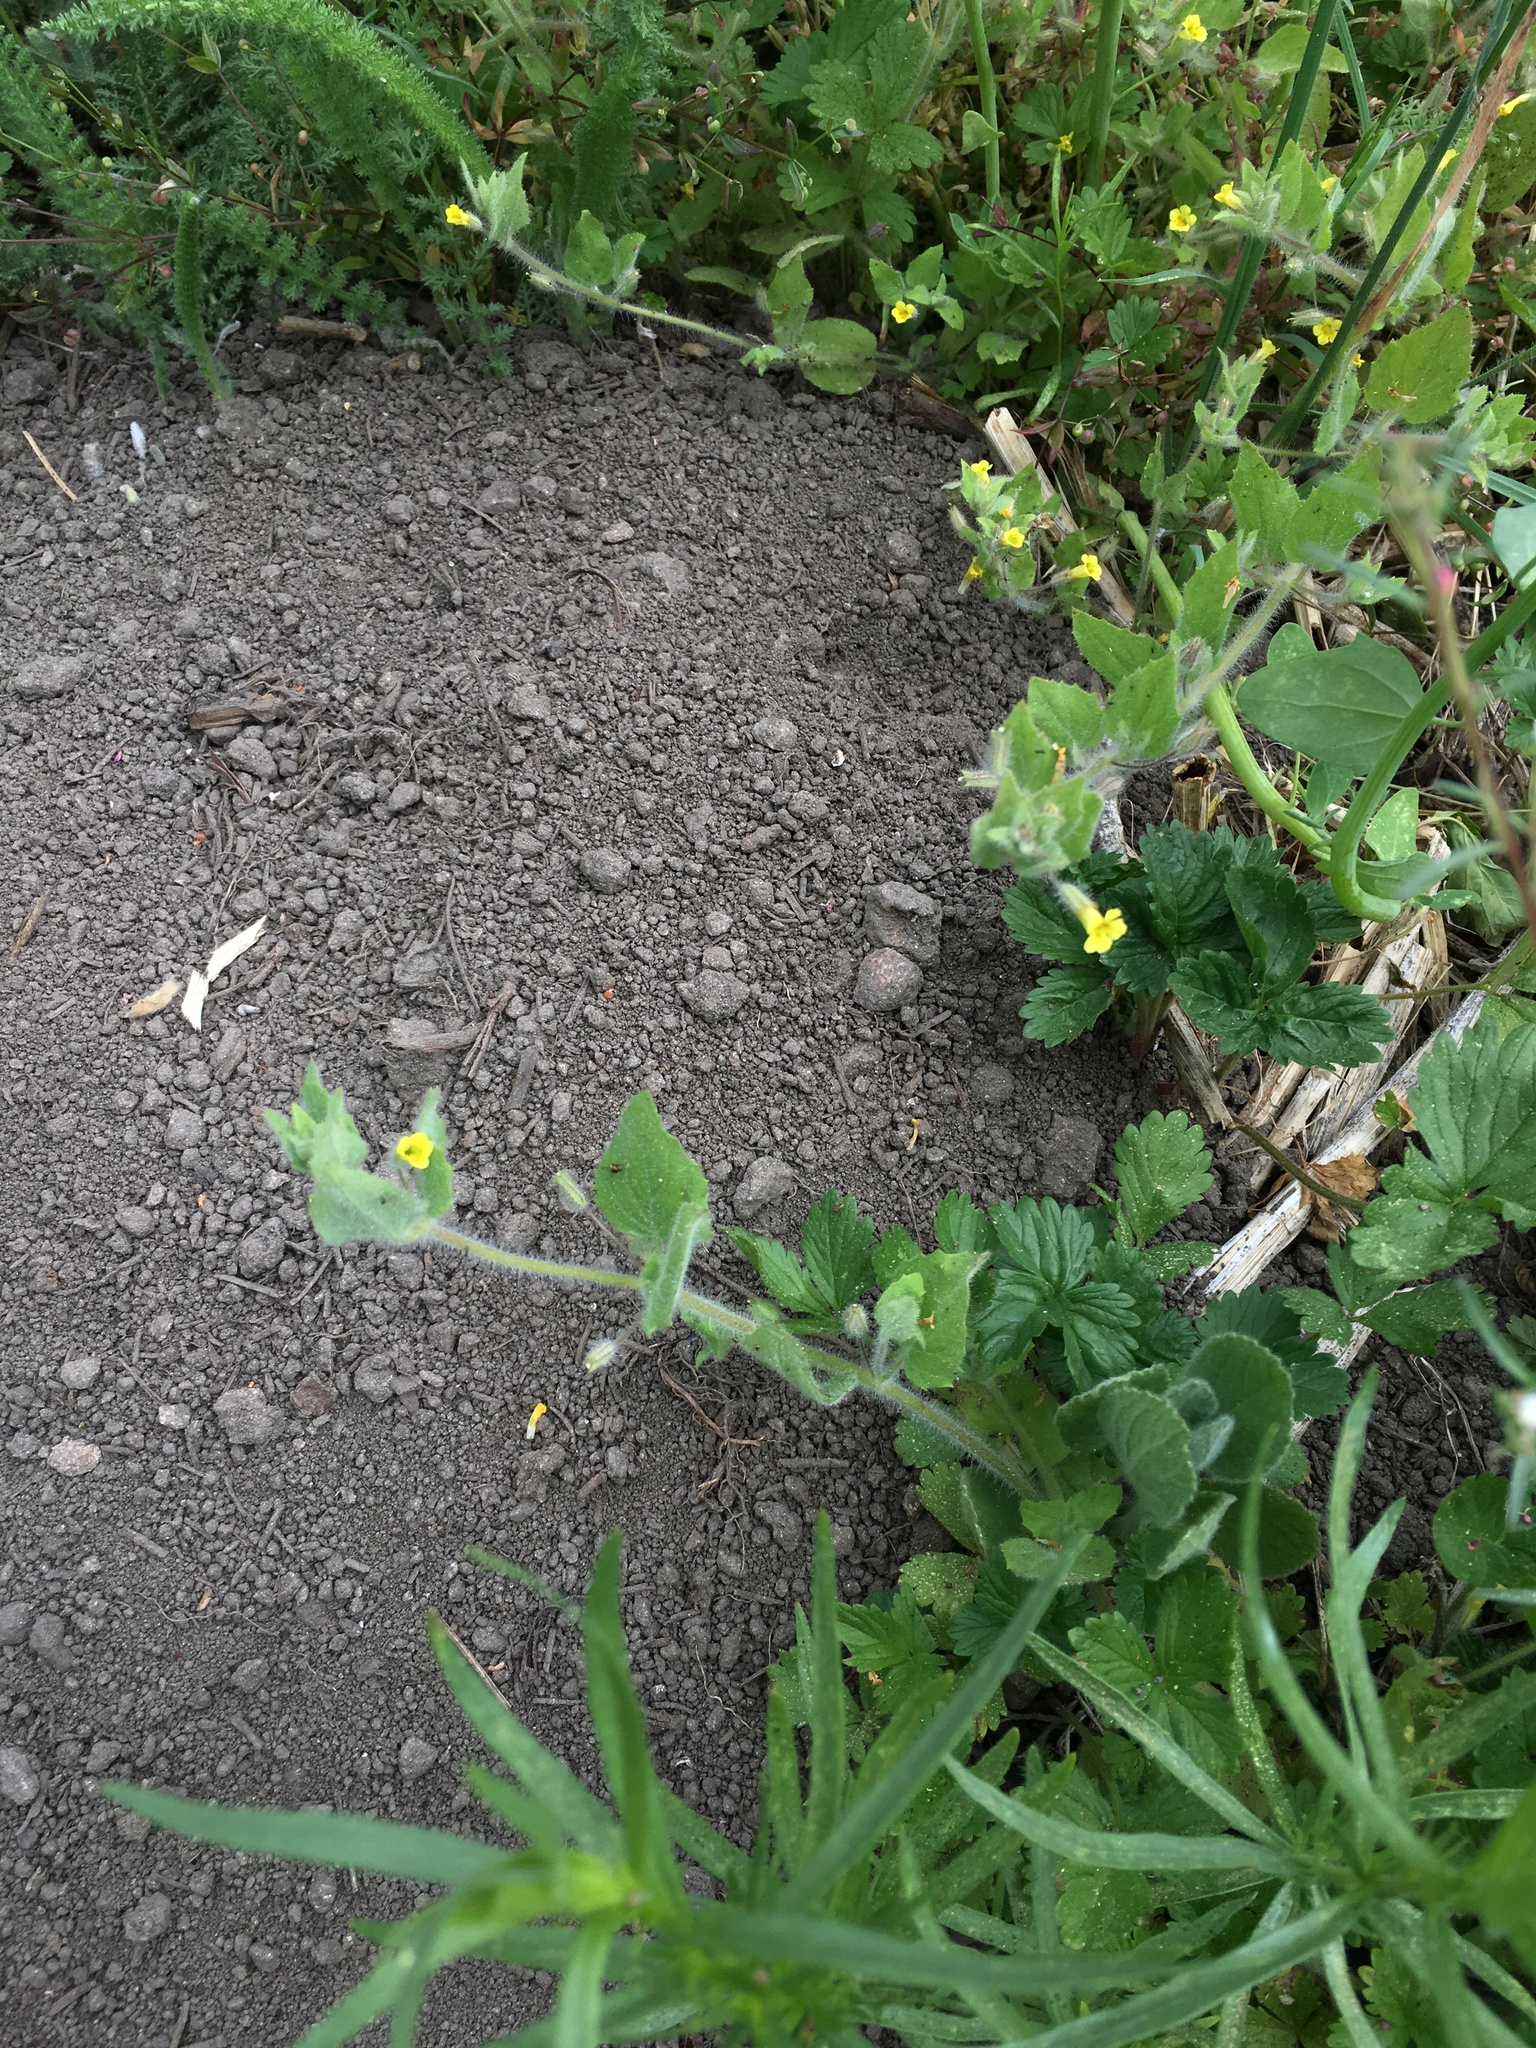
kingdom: Plantae
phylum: Tracheophyta
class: Magnoliopsida
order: Lamiales
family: Phrymaceae
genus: Erythranthe
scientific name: Erythranthe floribunda
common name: Floriferous monkeyflower
